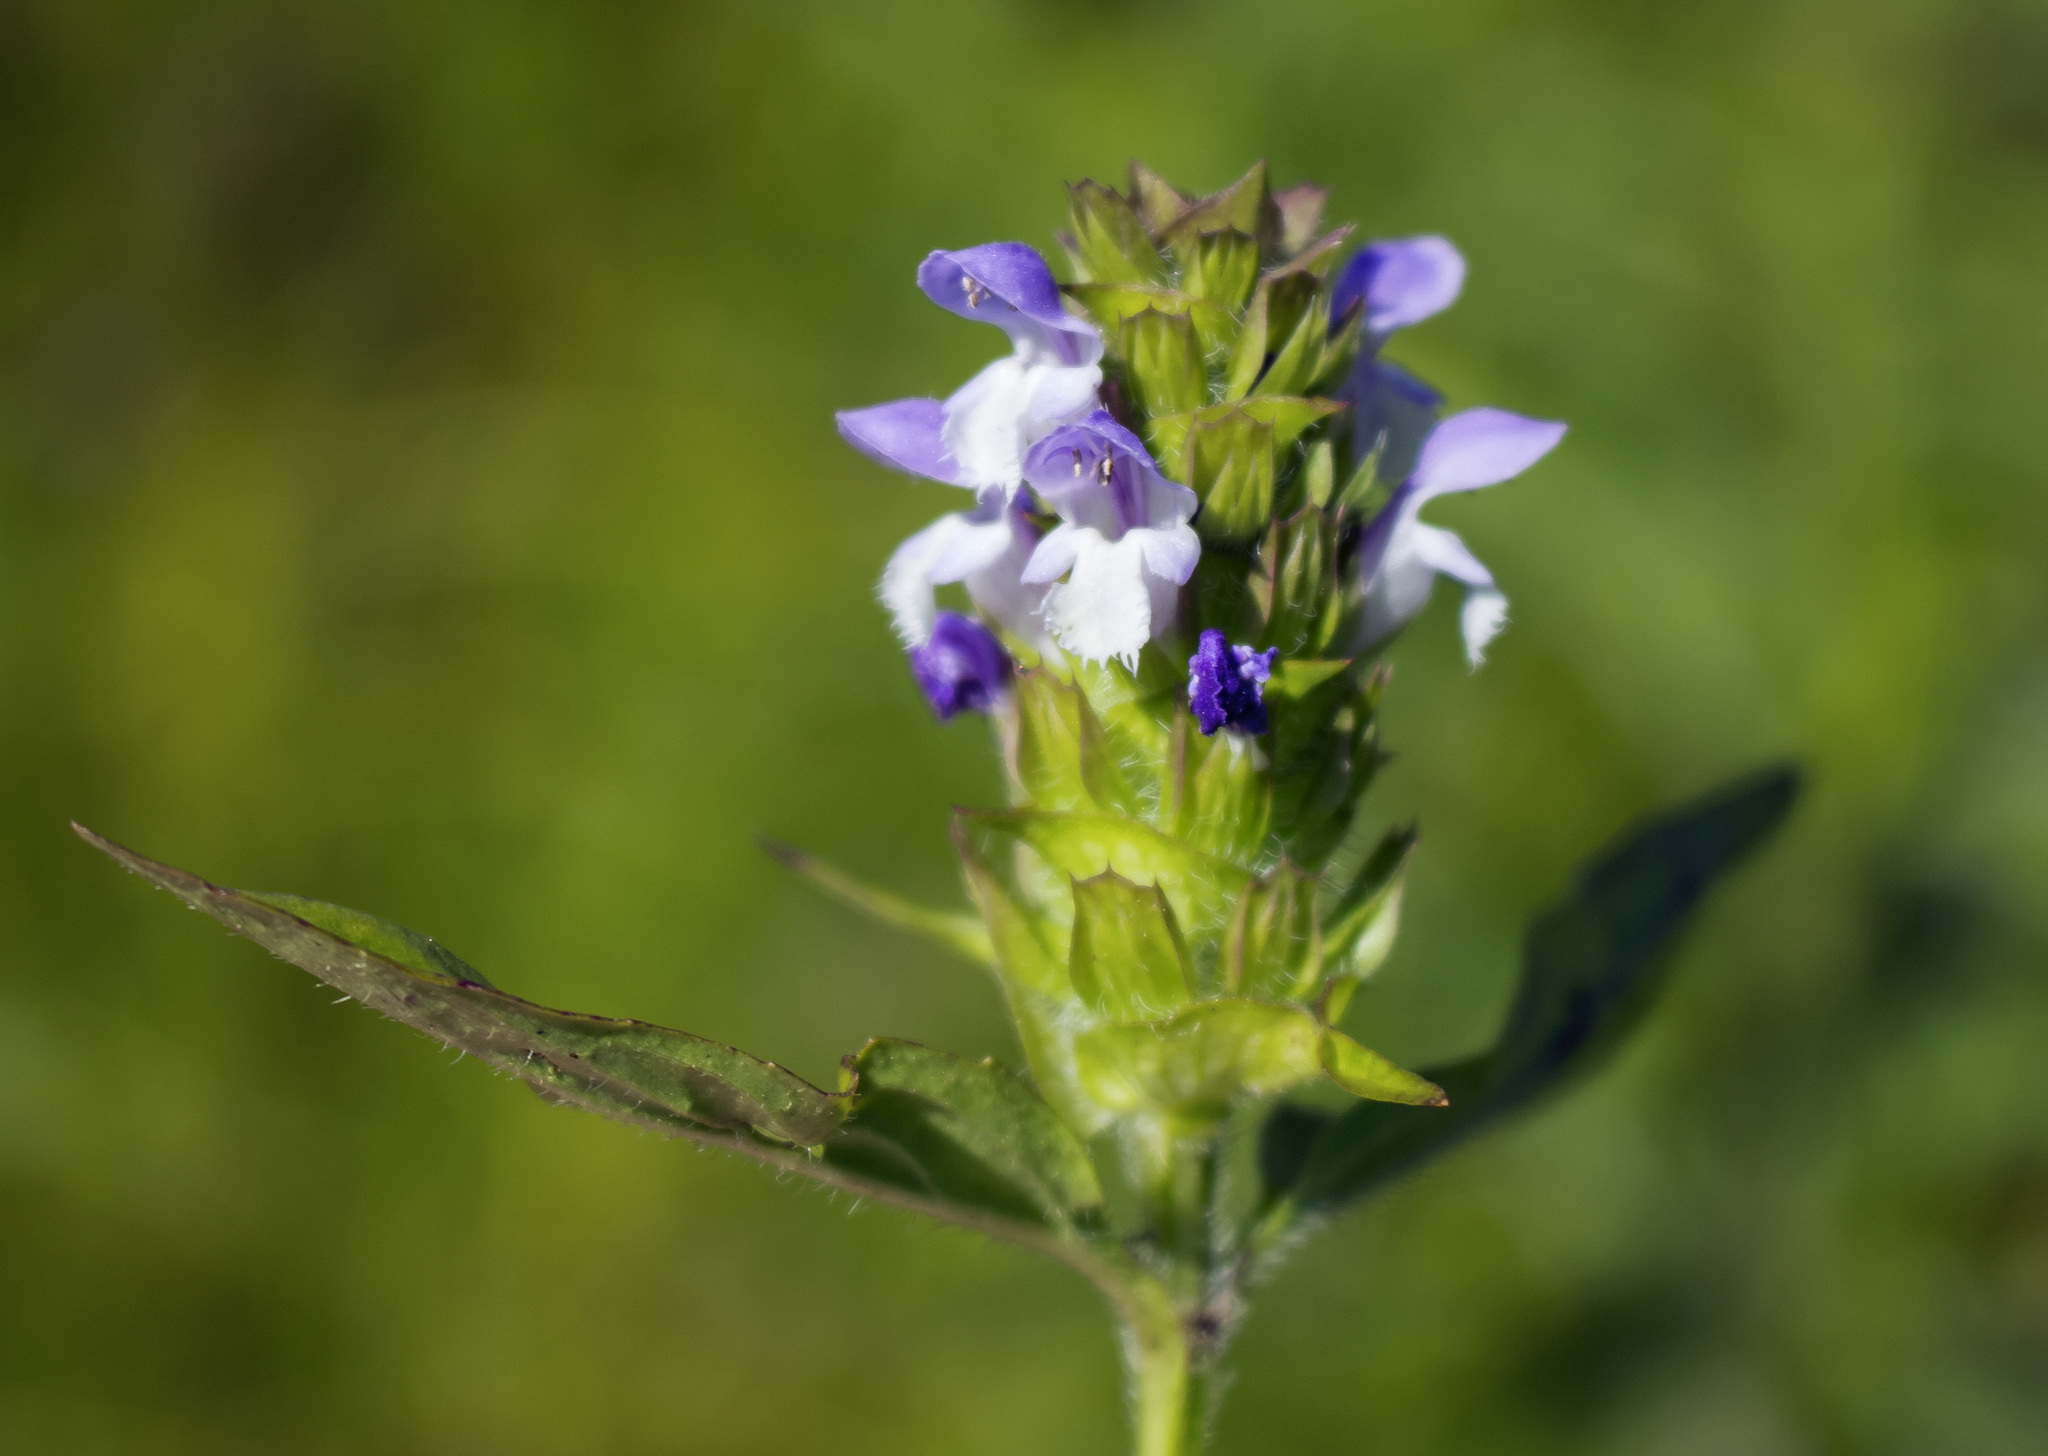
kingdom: Plantae
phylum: Tracheophyta
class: Magnoliopsida
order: Lamiales
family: Lamiaceae
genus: Prunella
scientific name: Prunella vulgaris
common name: Heal-all
